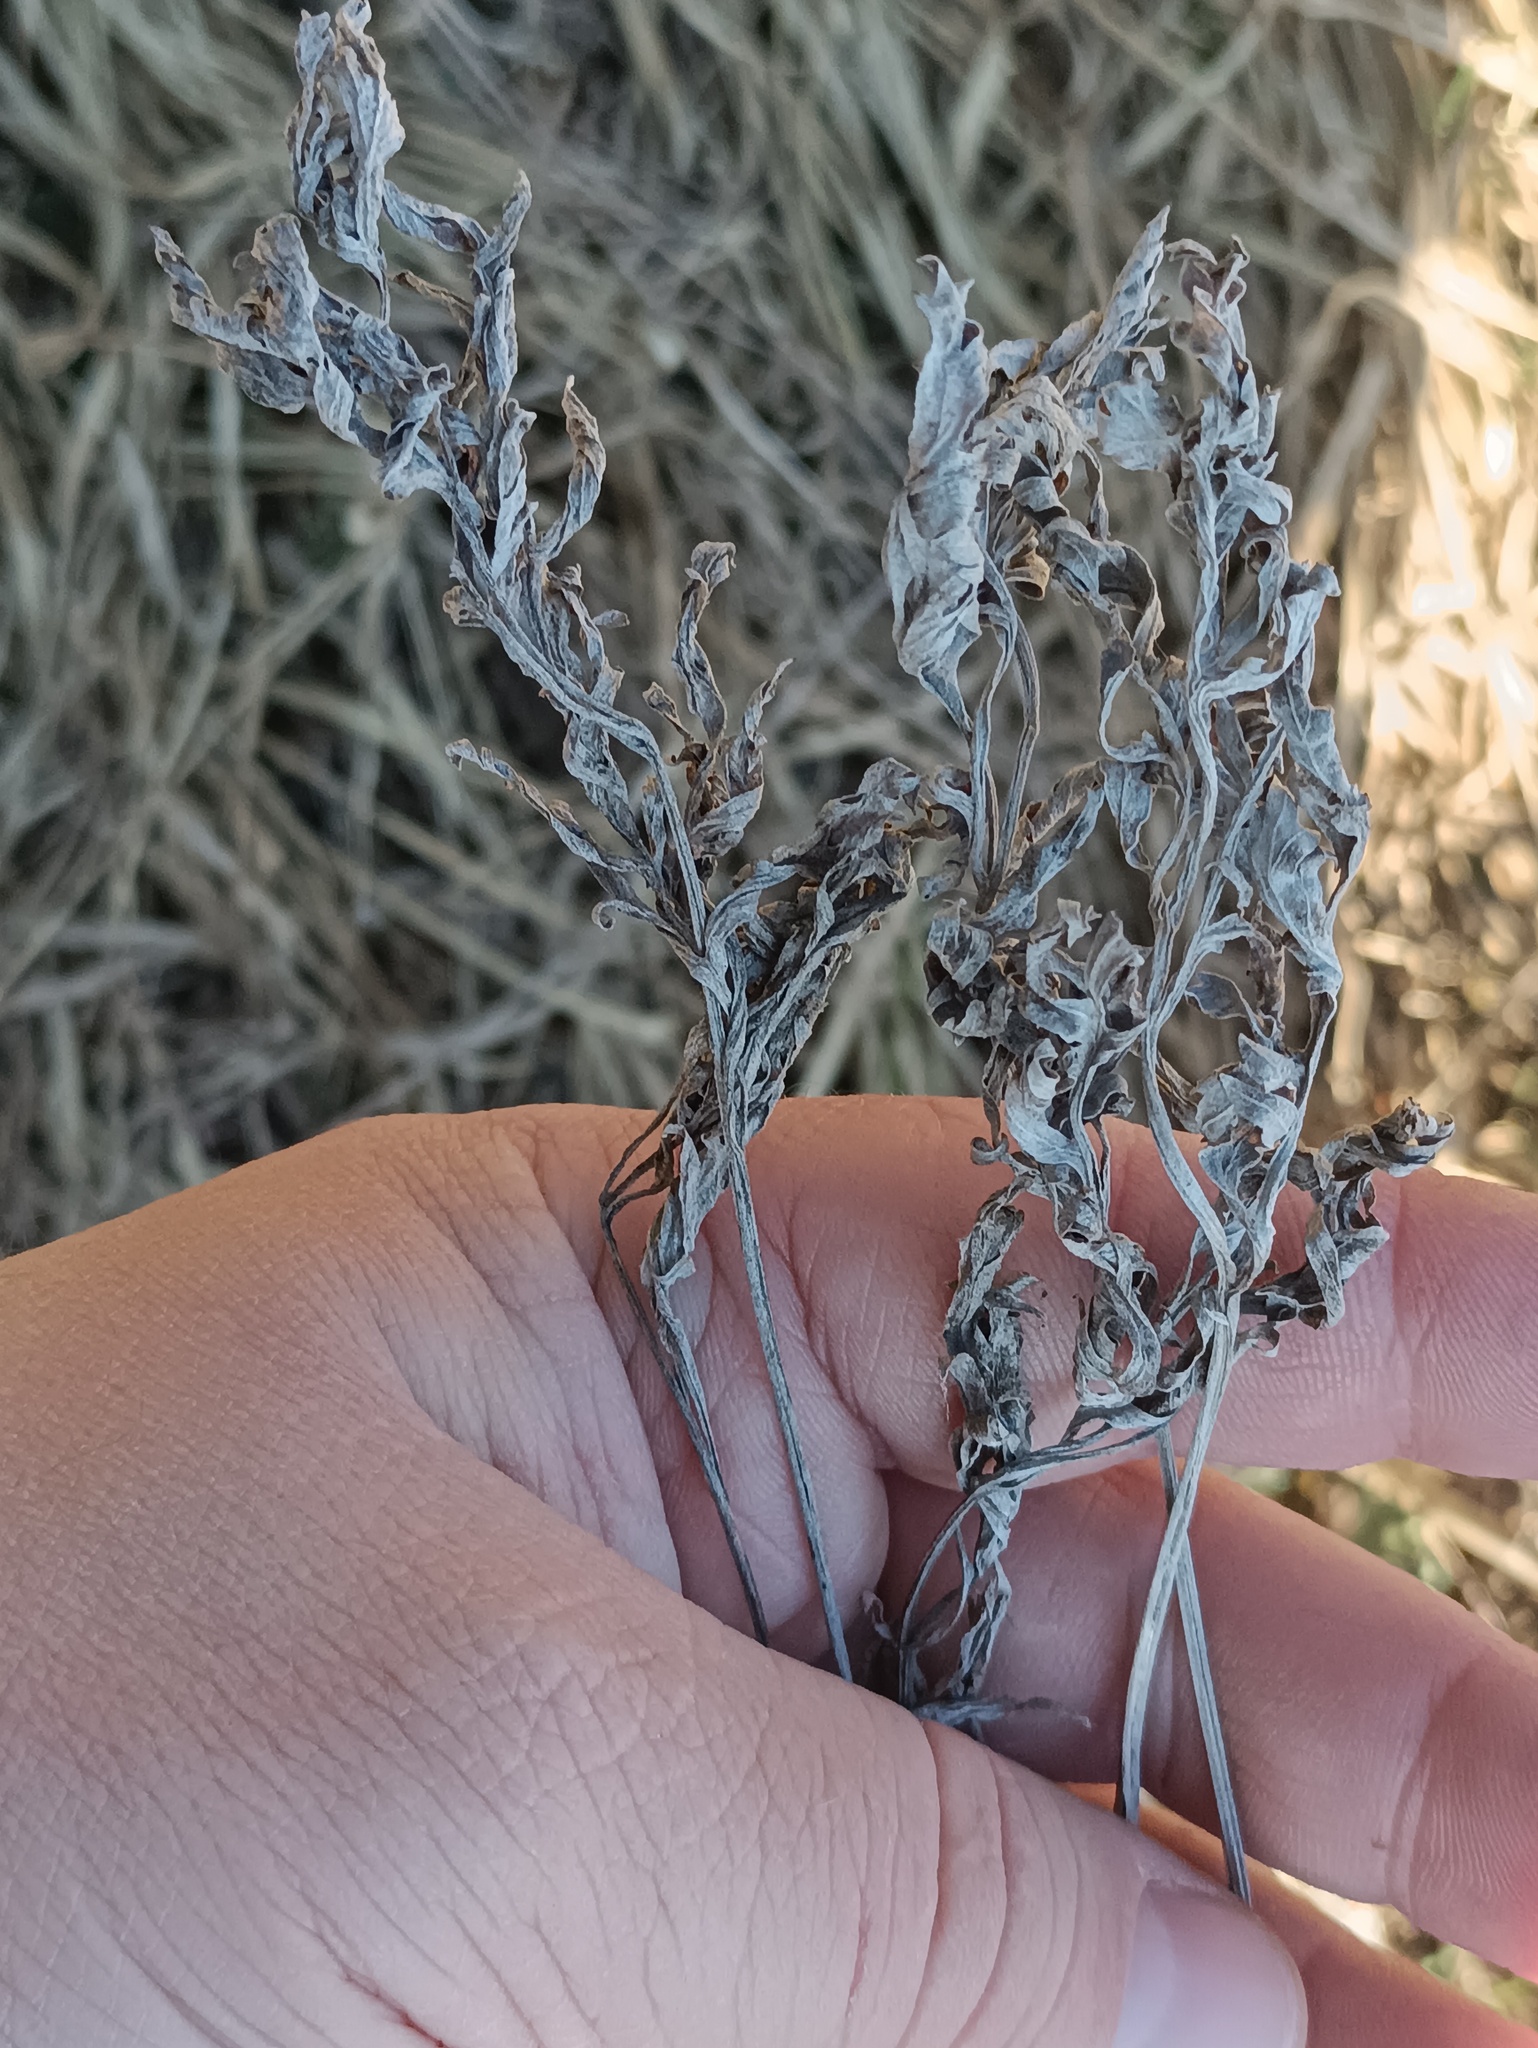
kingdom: Plantae
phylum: Tracheophyta
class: Magnoliopsida
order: Asterales
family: Asteraceae
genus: Artemisia
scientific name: Artemisia absinthium
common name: Wormwood
